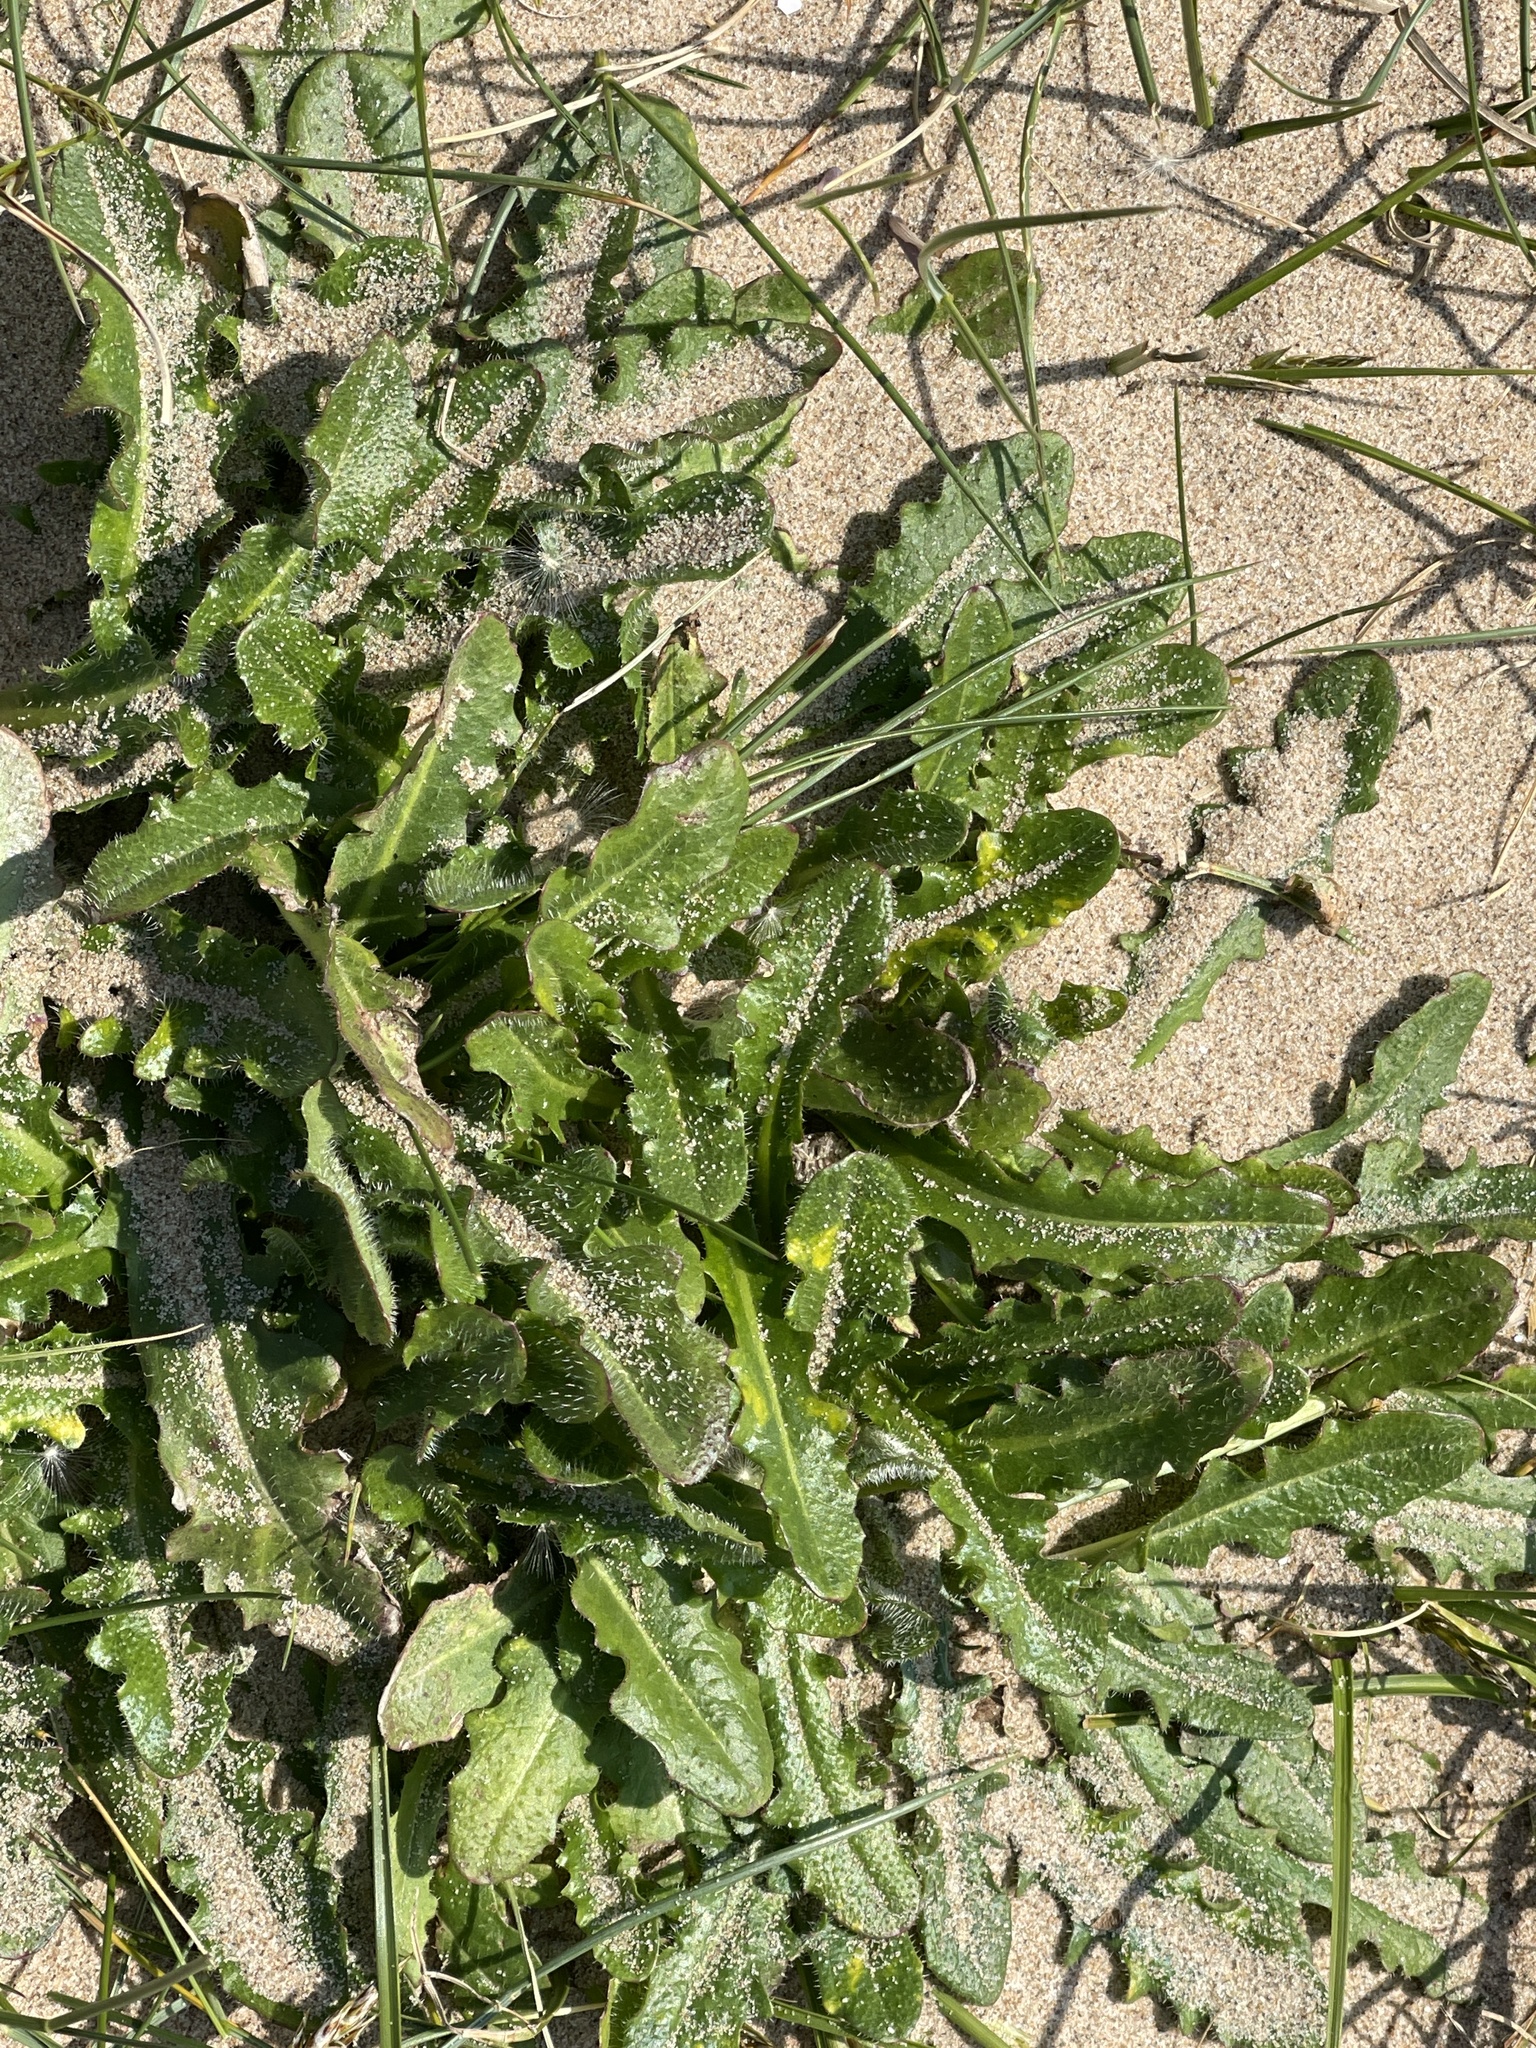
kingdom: Plantae
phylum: Tracheophyta
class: Magnoliopsida
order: Asterales
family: Asteraceae
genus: Hypochaeris
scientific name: Hypochaeris radicata
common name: Flatweed
